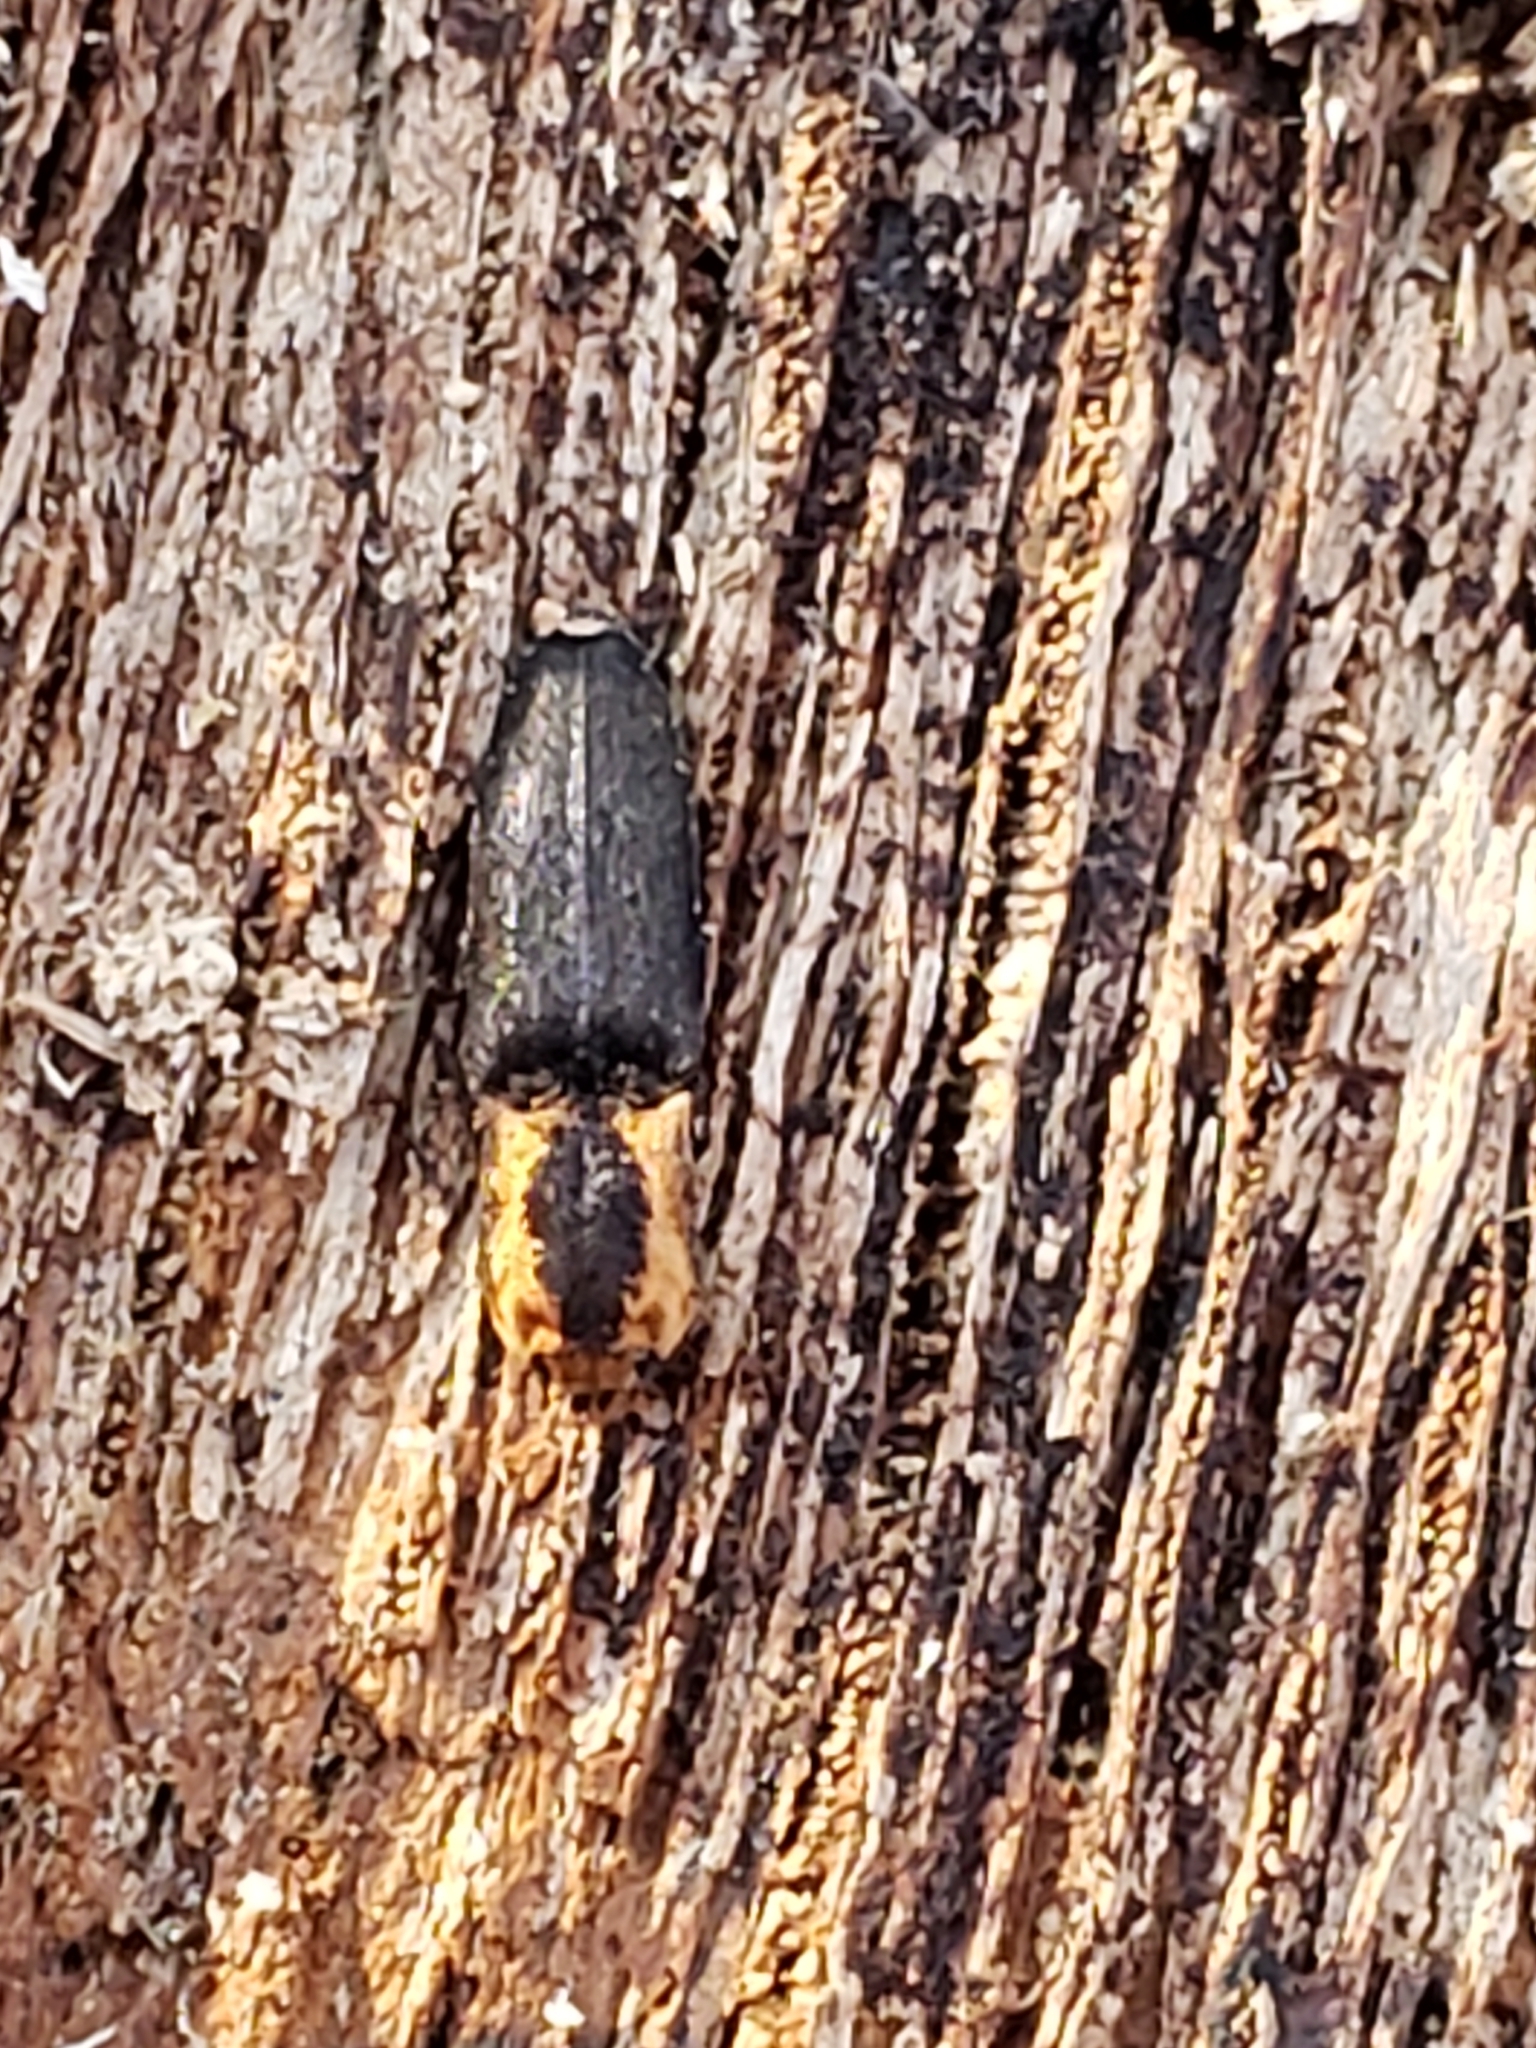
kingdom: Animalia
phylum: Arthropoda
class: Insecta
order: Coleoptera
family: Elateridae
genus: Lacon
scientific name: Lacon discoideus
